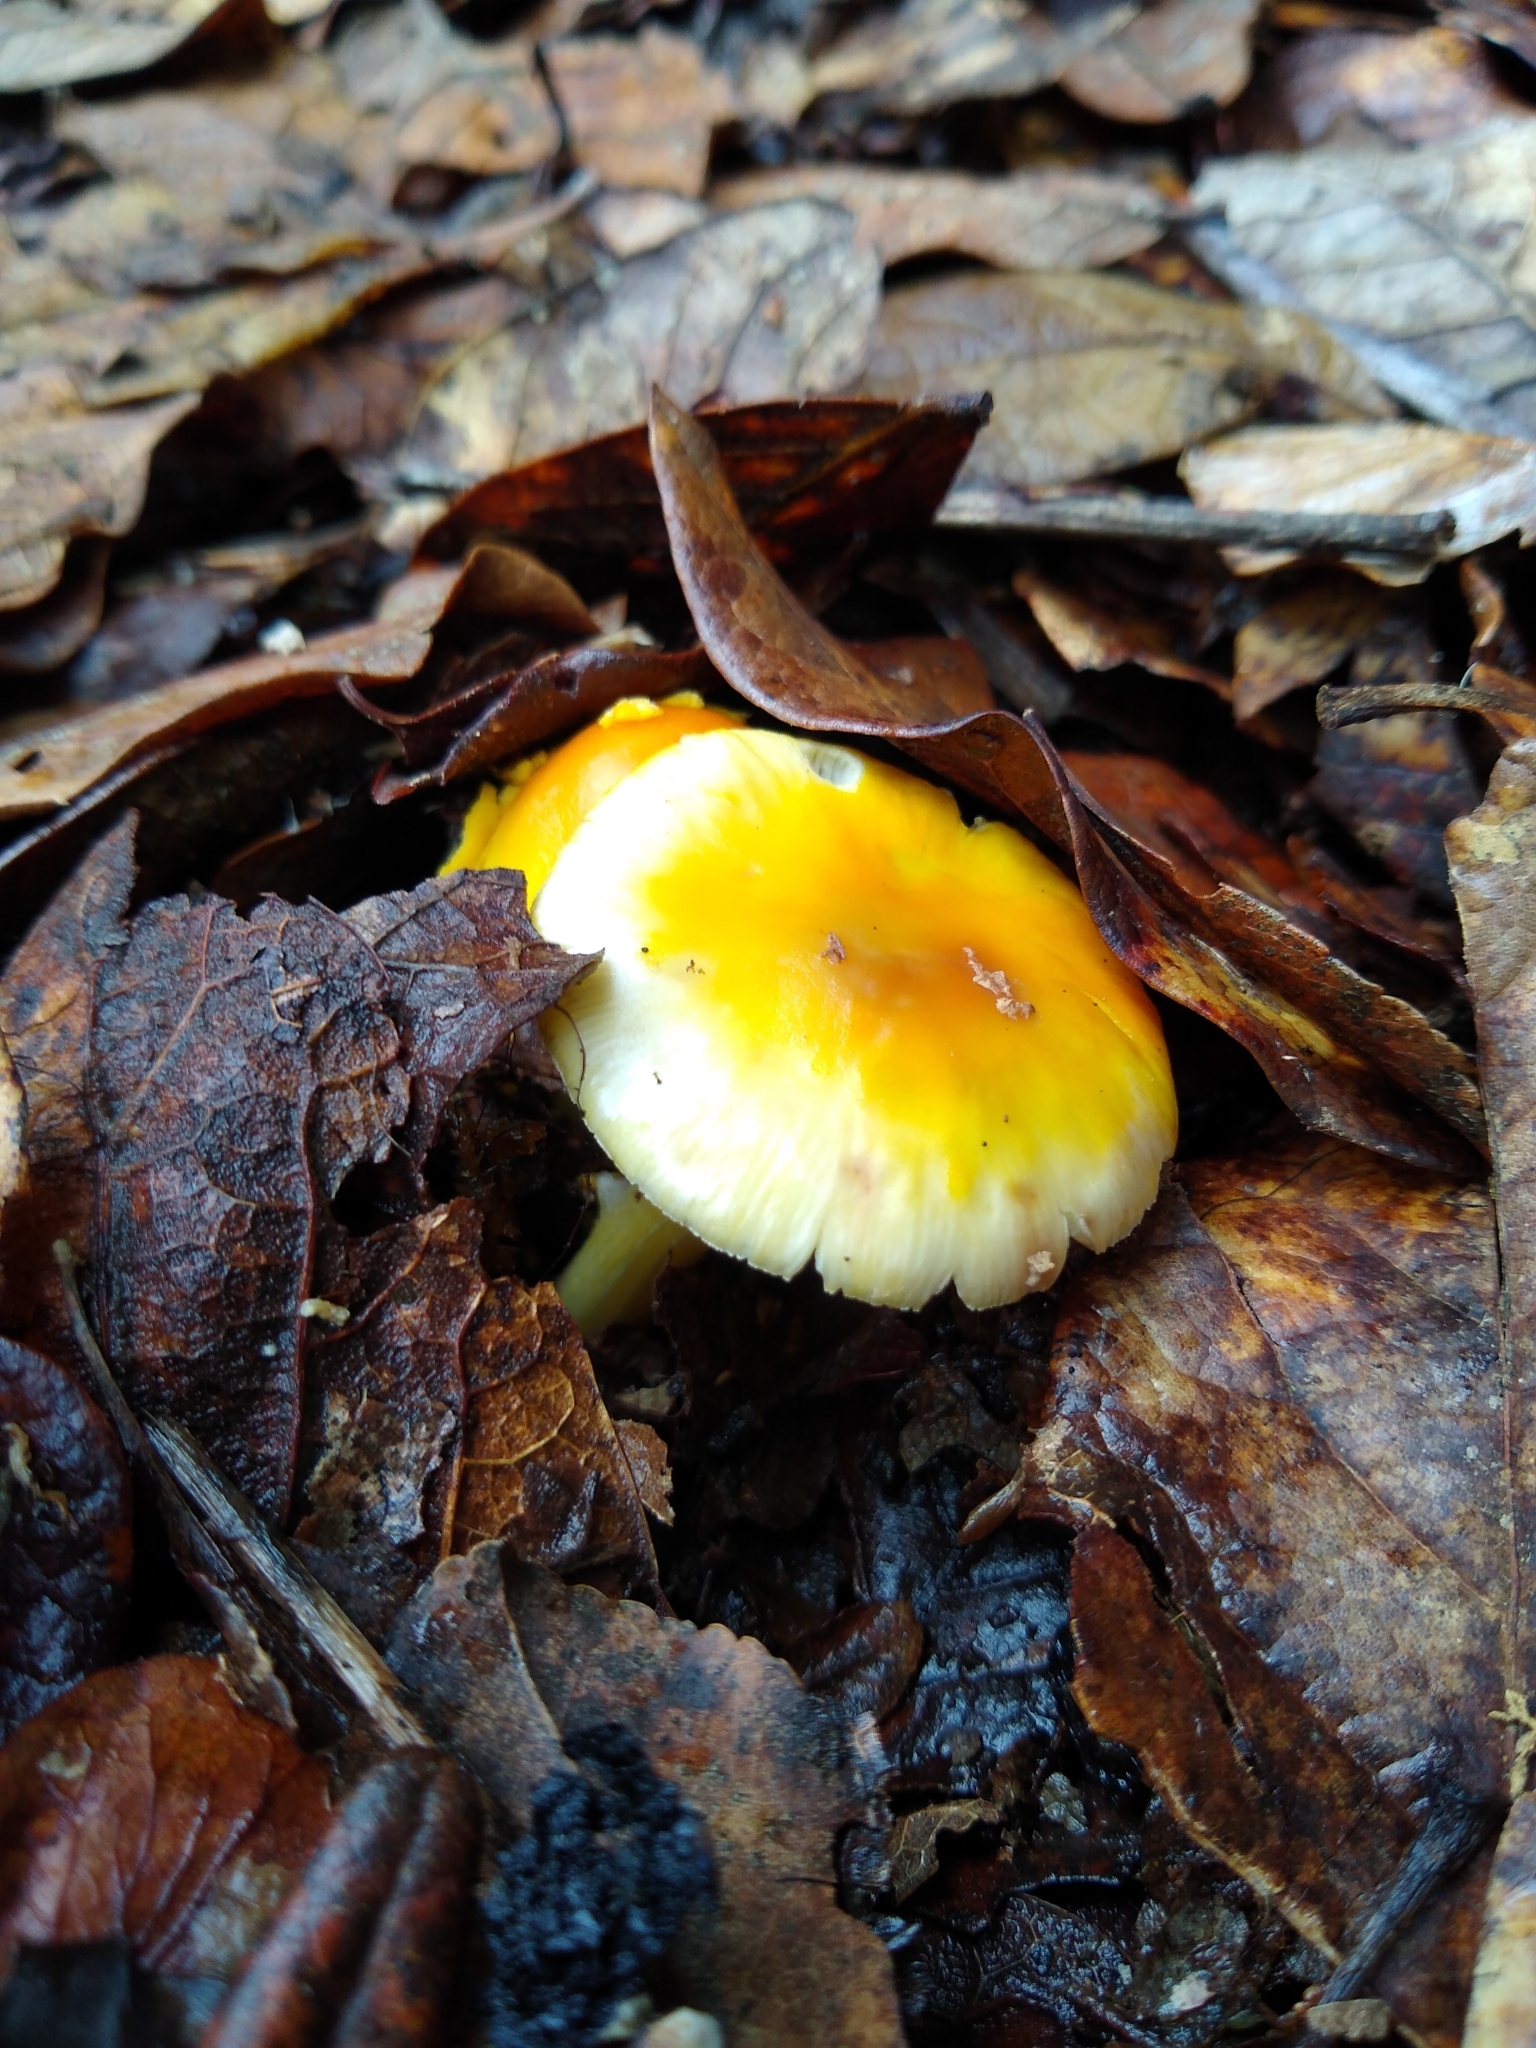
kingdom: Fungi
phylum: Basidiomycota
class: Agaricomycetes
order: Agaricales
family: Amanitaceae
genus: Amanita
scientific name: Amanita flavoconia
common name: Yellow patches
